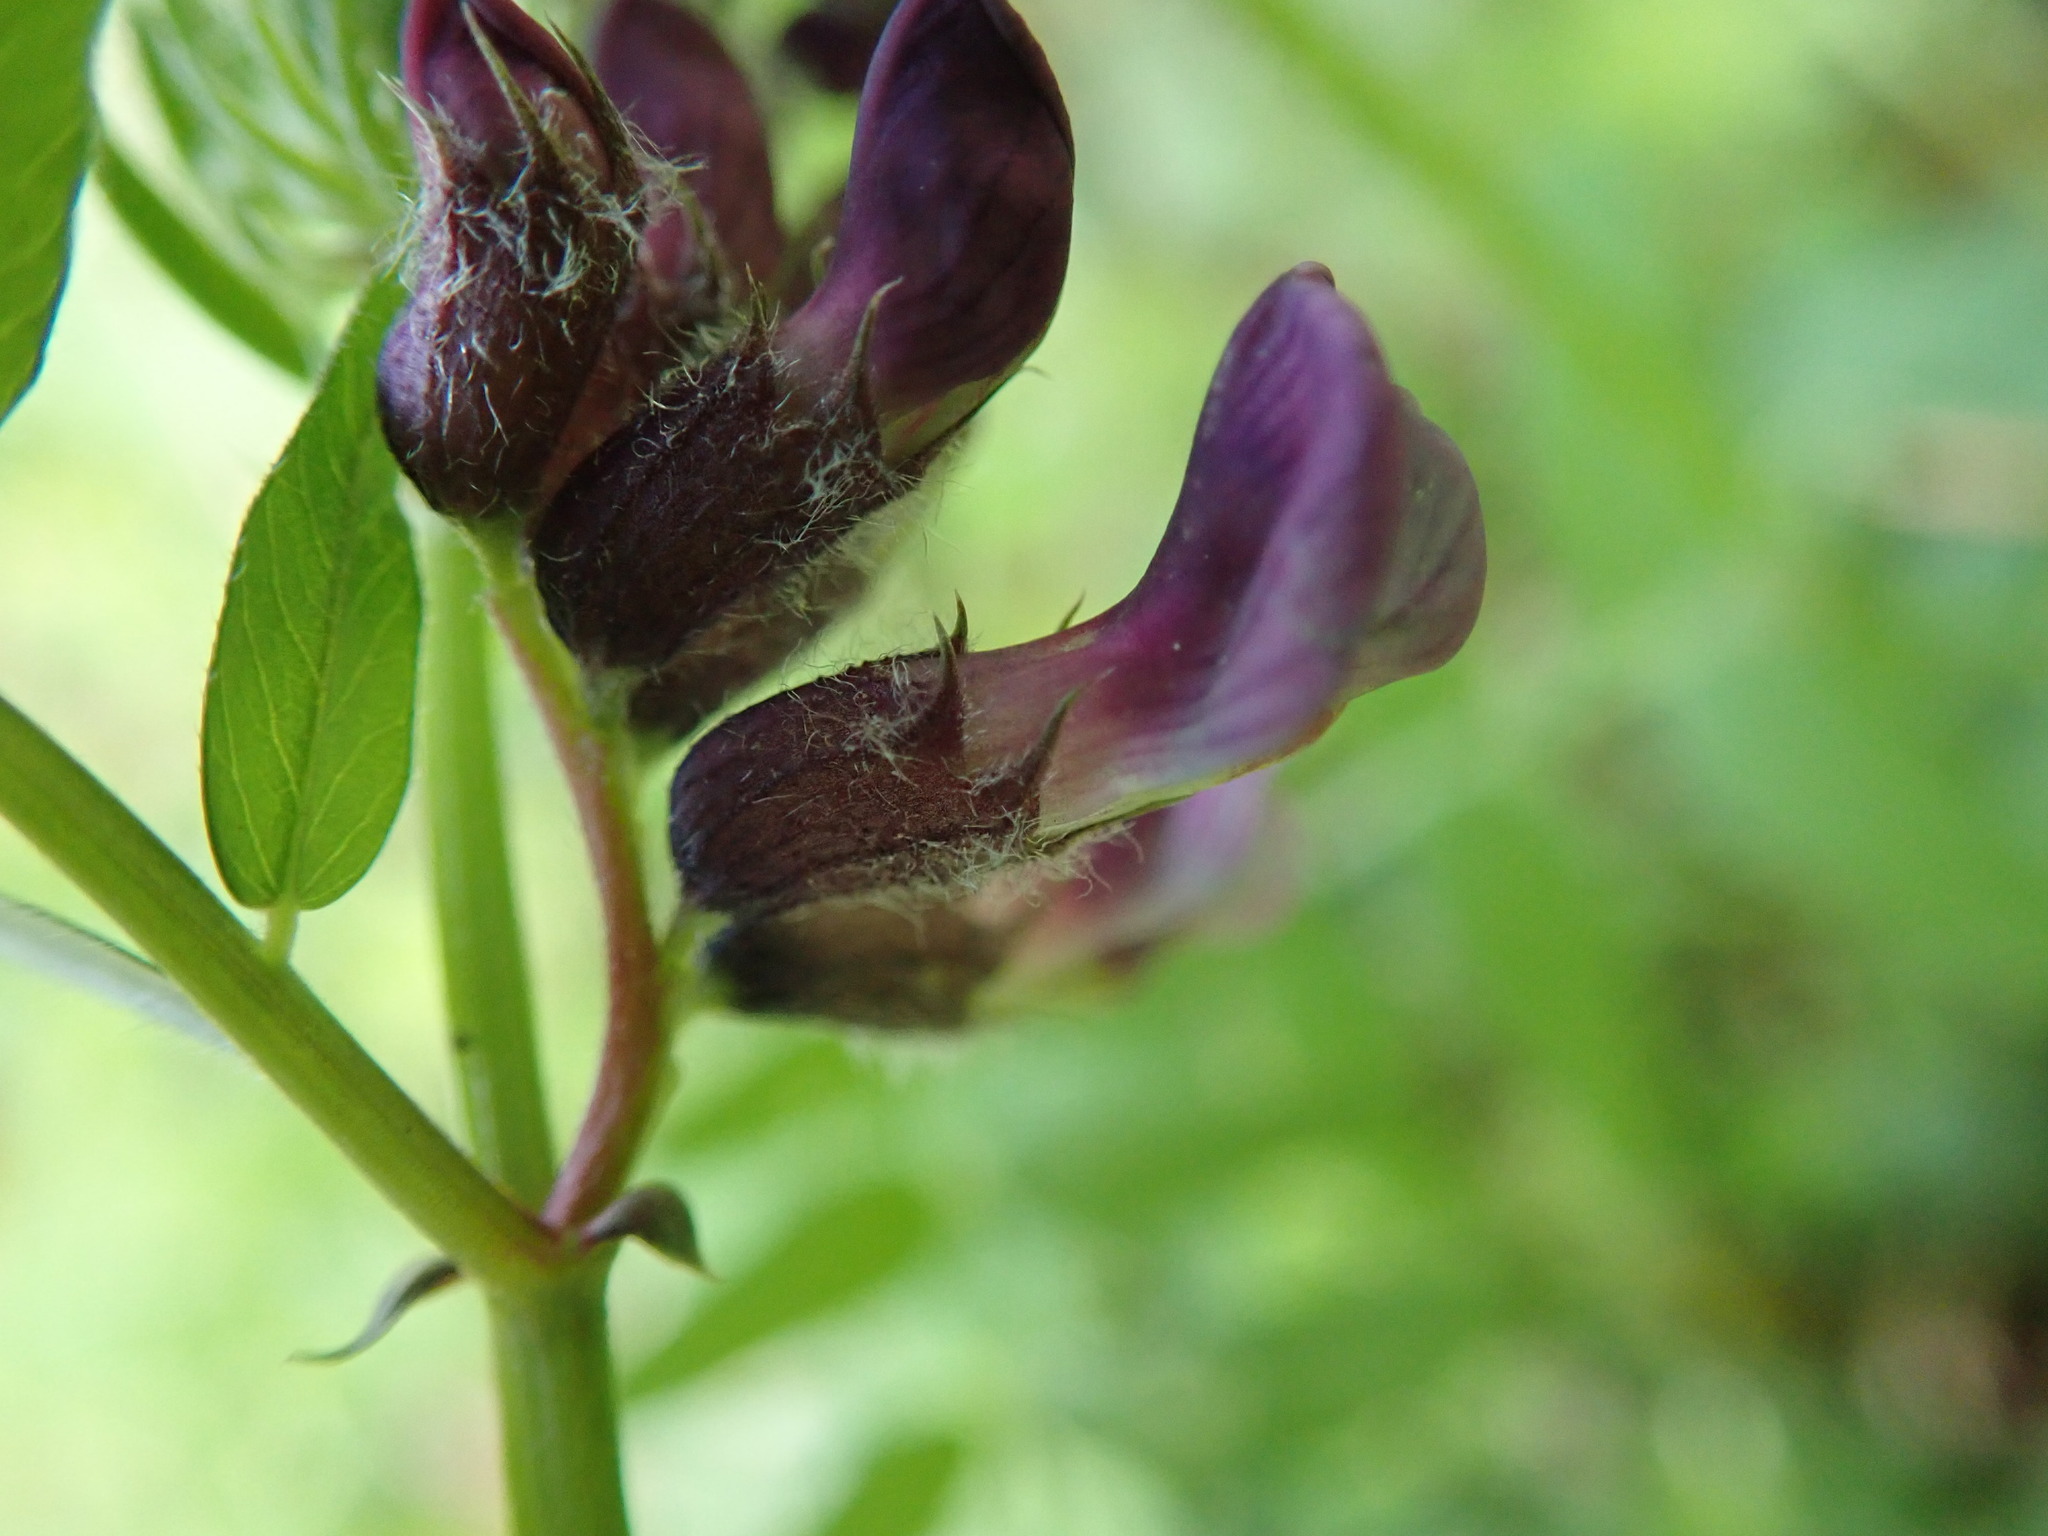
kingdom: Plantae
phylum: Tracheophyta
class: Magnoliopsida
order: Fabales
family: Fabaceae
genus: Vicia
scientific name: Vicia sepium
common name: Bush vetch
